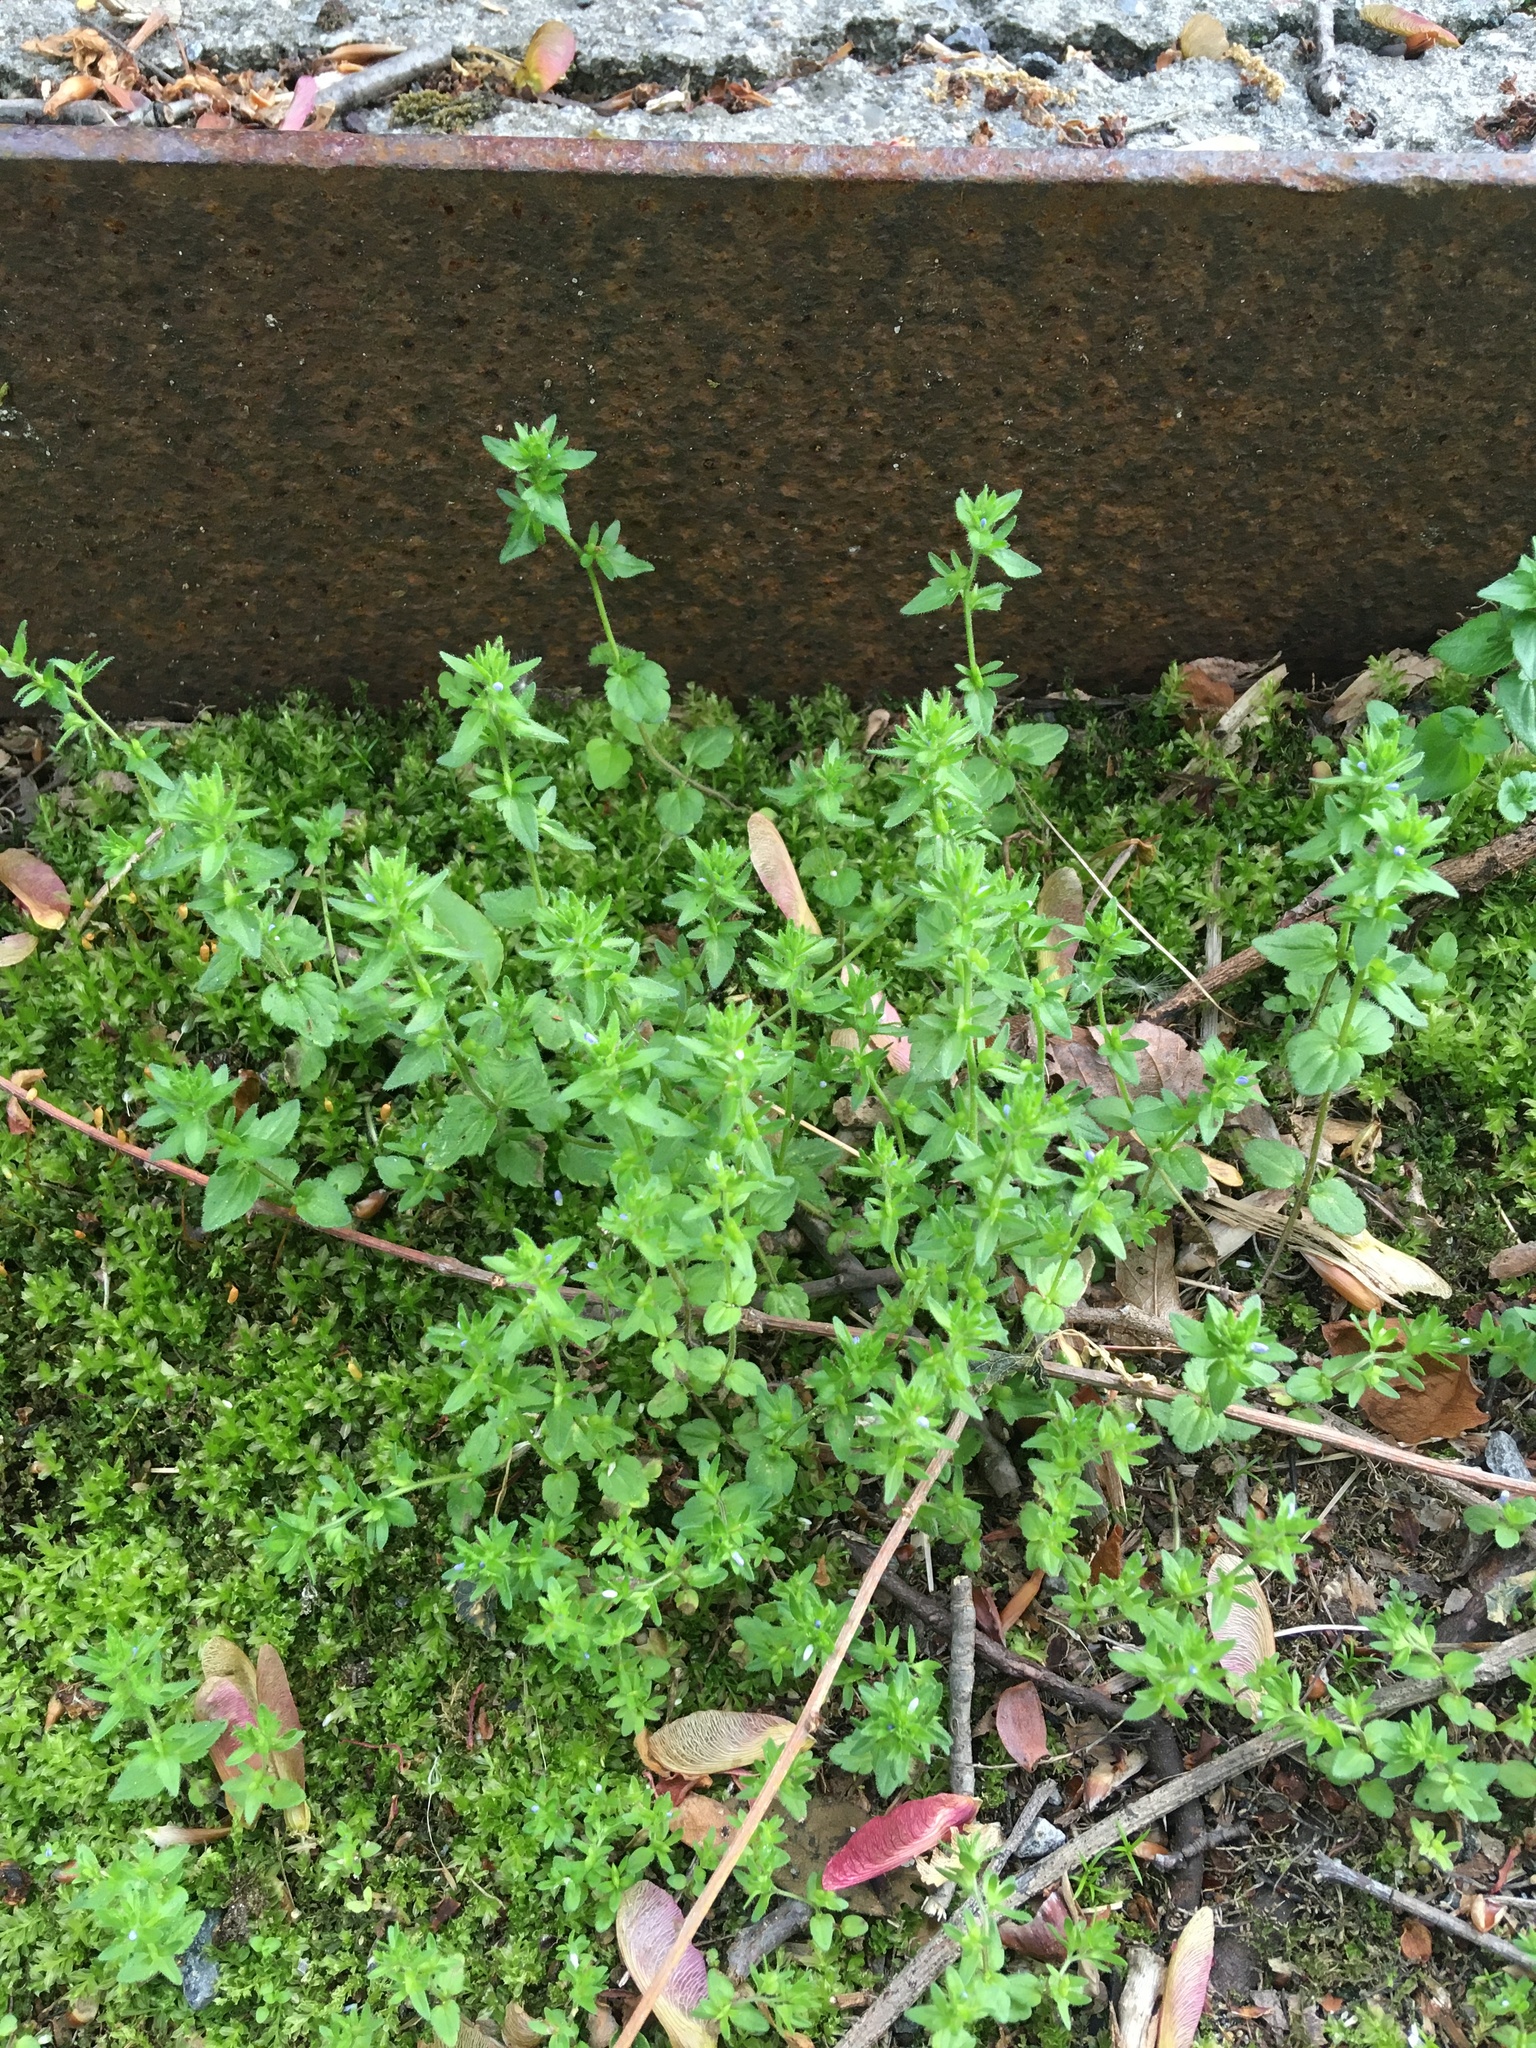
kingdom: Plantae
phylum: Tracheophyta
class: Magnoliopsida
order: Lamiales
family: Plantaginaceae
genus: Veronica
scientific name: Veronica arvensis
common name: Corn speedwell
